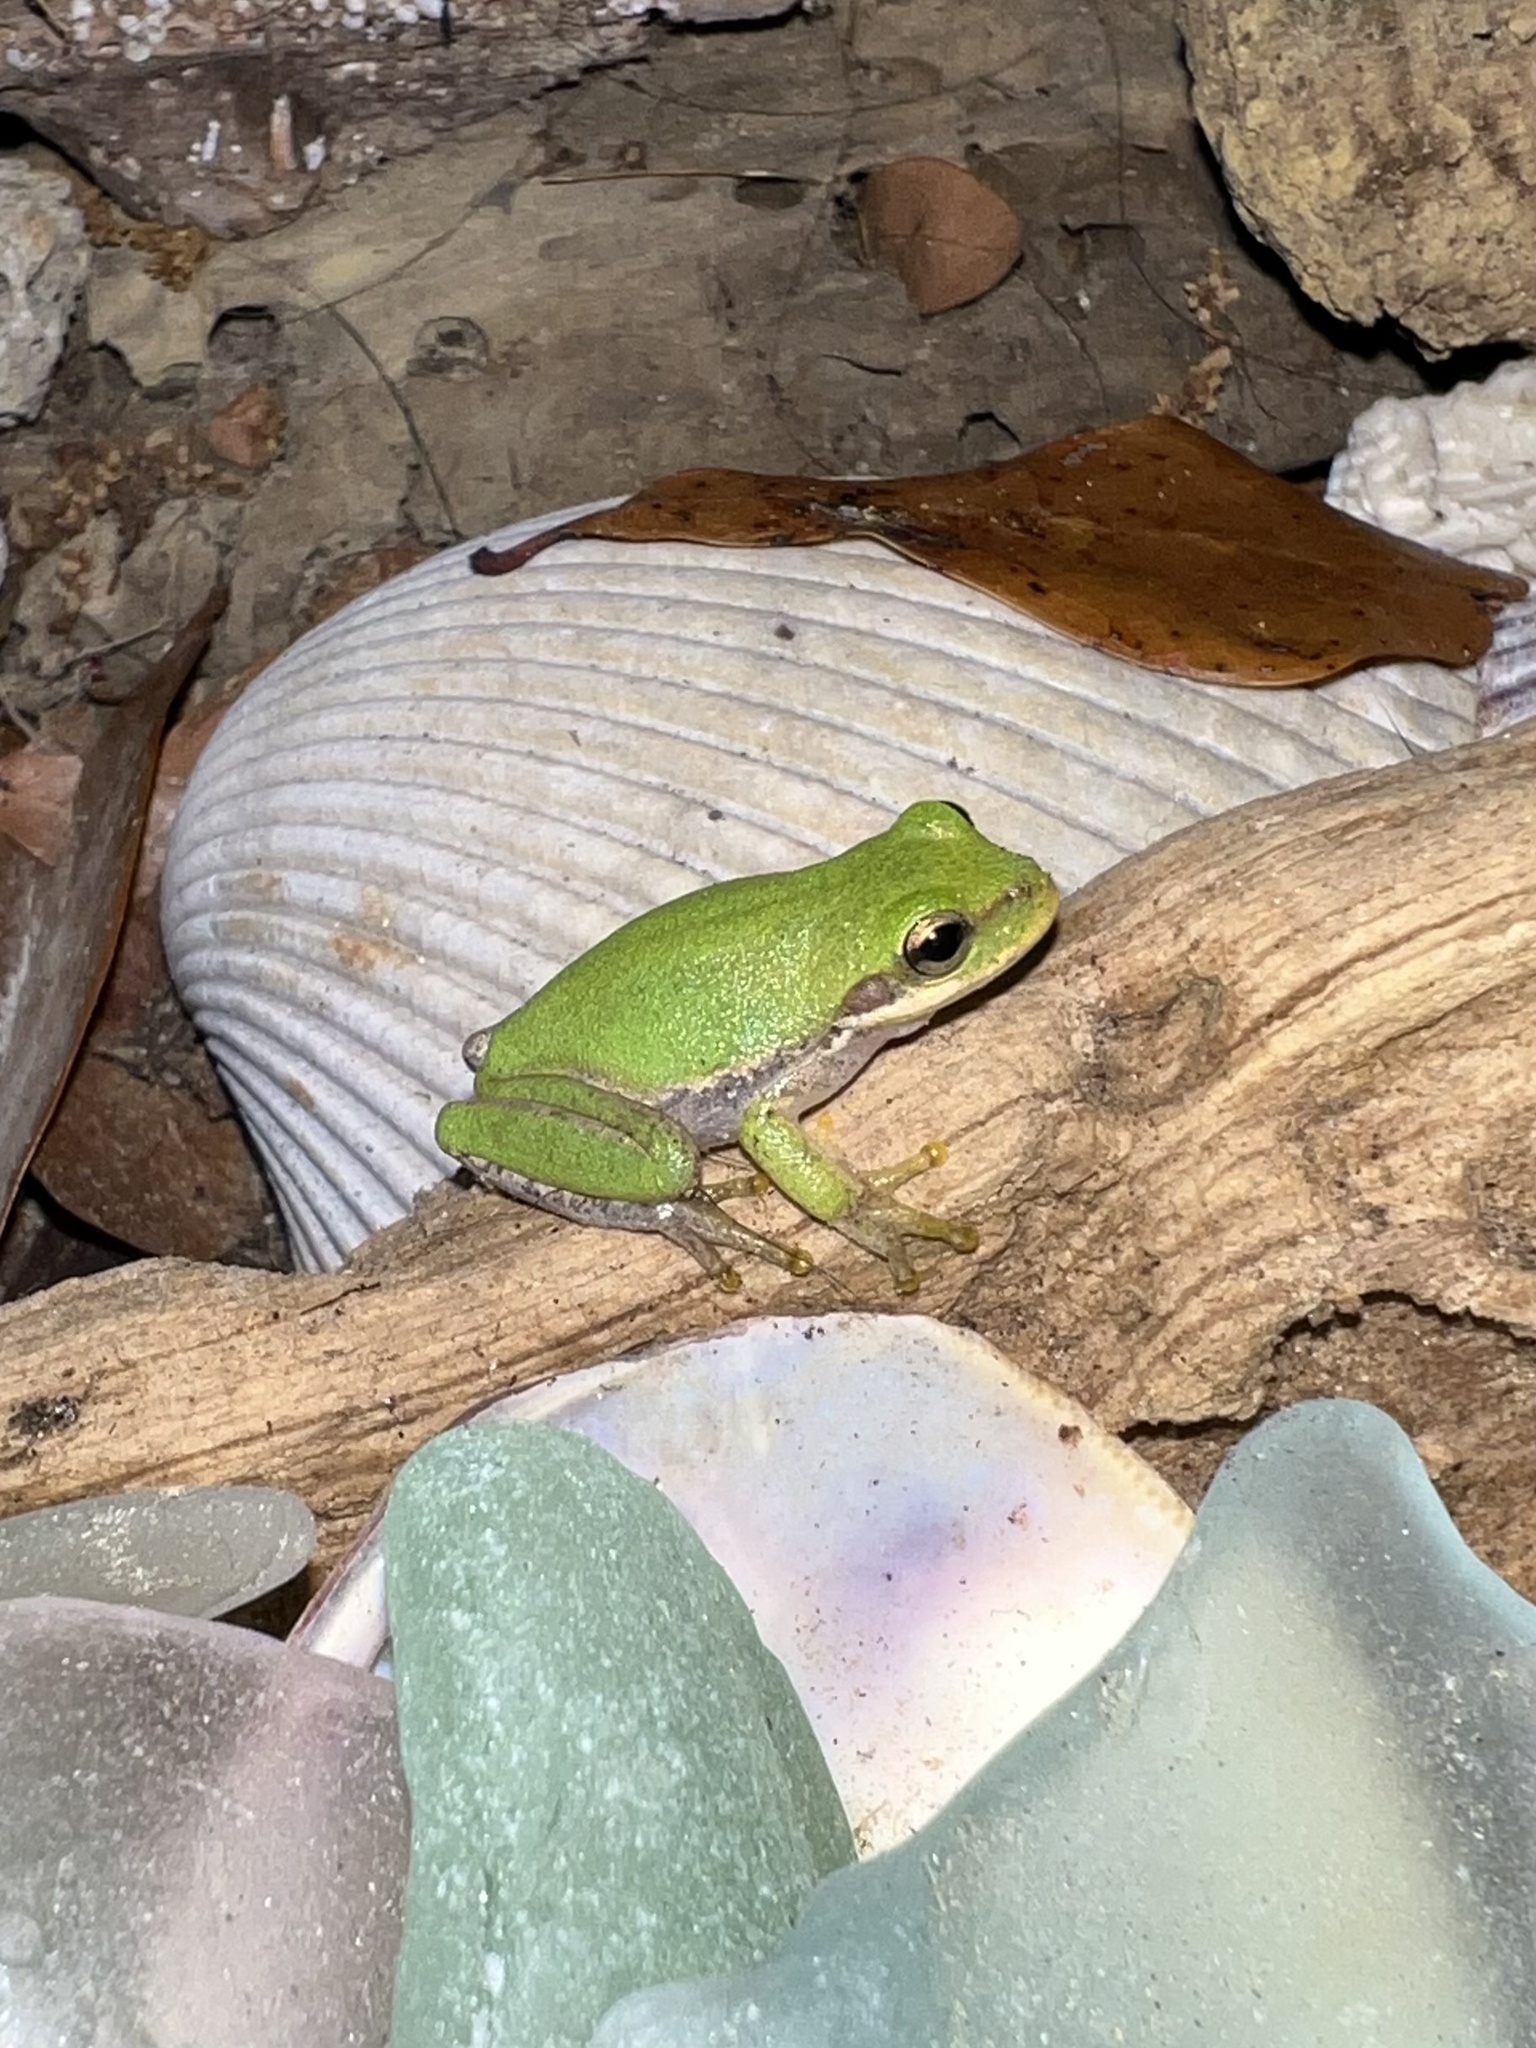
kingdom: Animalia
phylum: Chordata
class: Amphibia
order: Anura
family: Hylidae
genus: Dryophytes
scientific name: Dryophytes squirellus
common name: Squirrel treefrog
